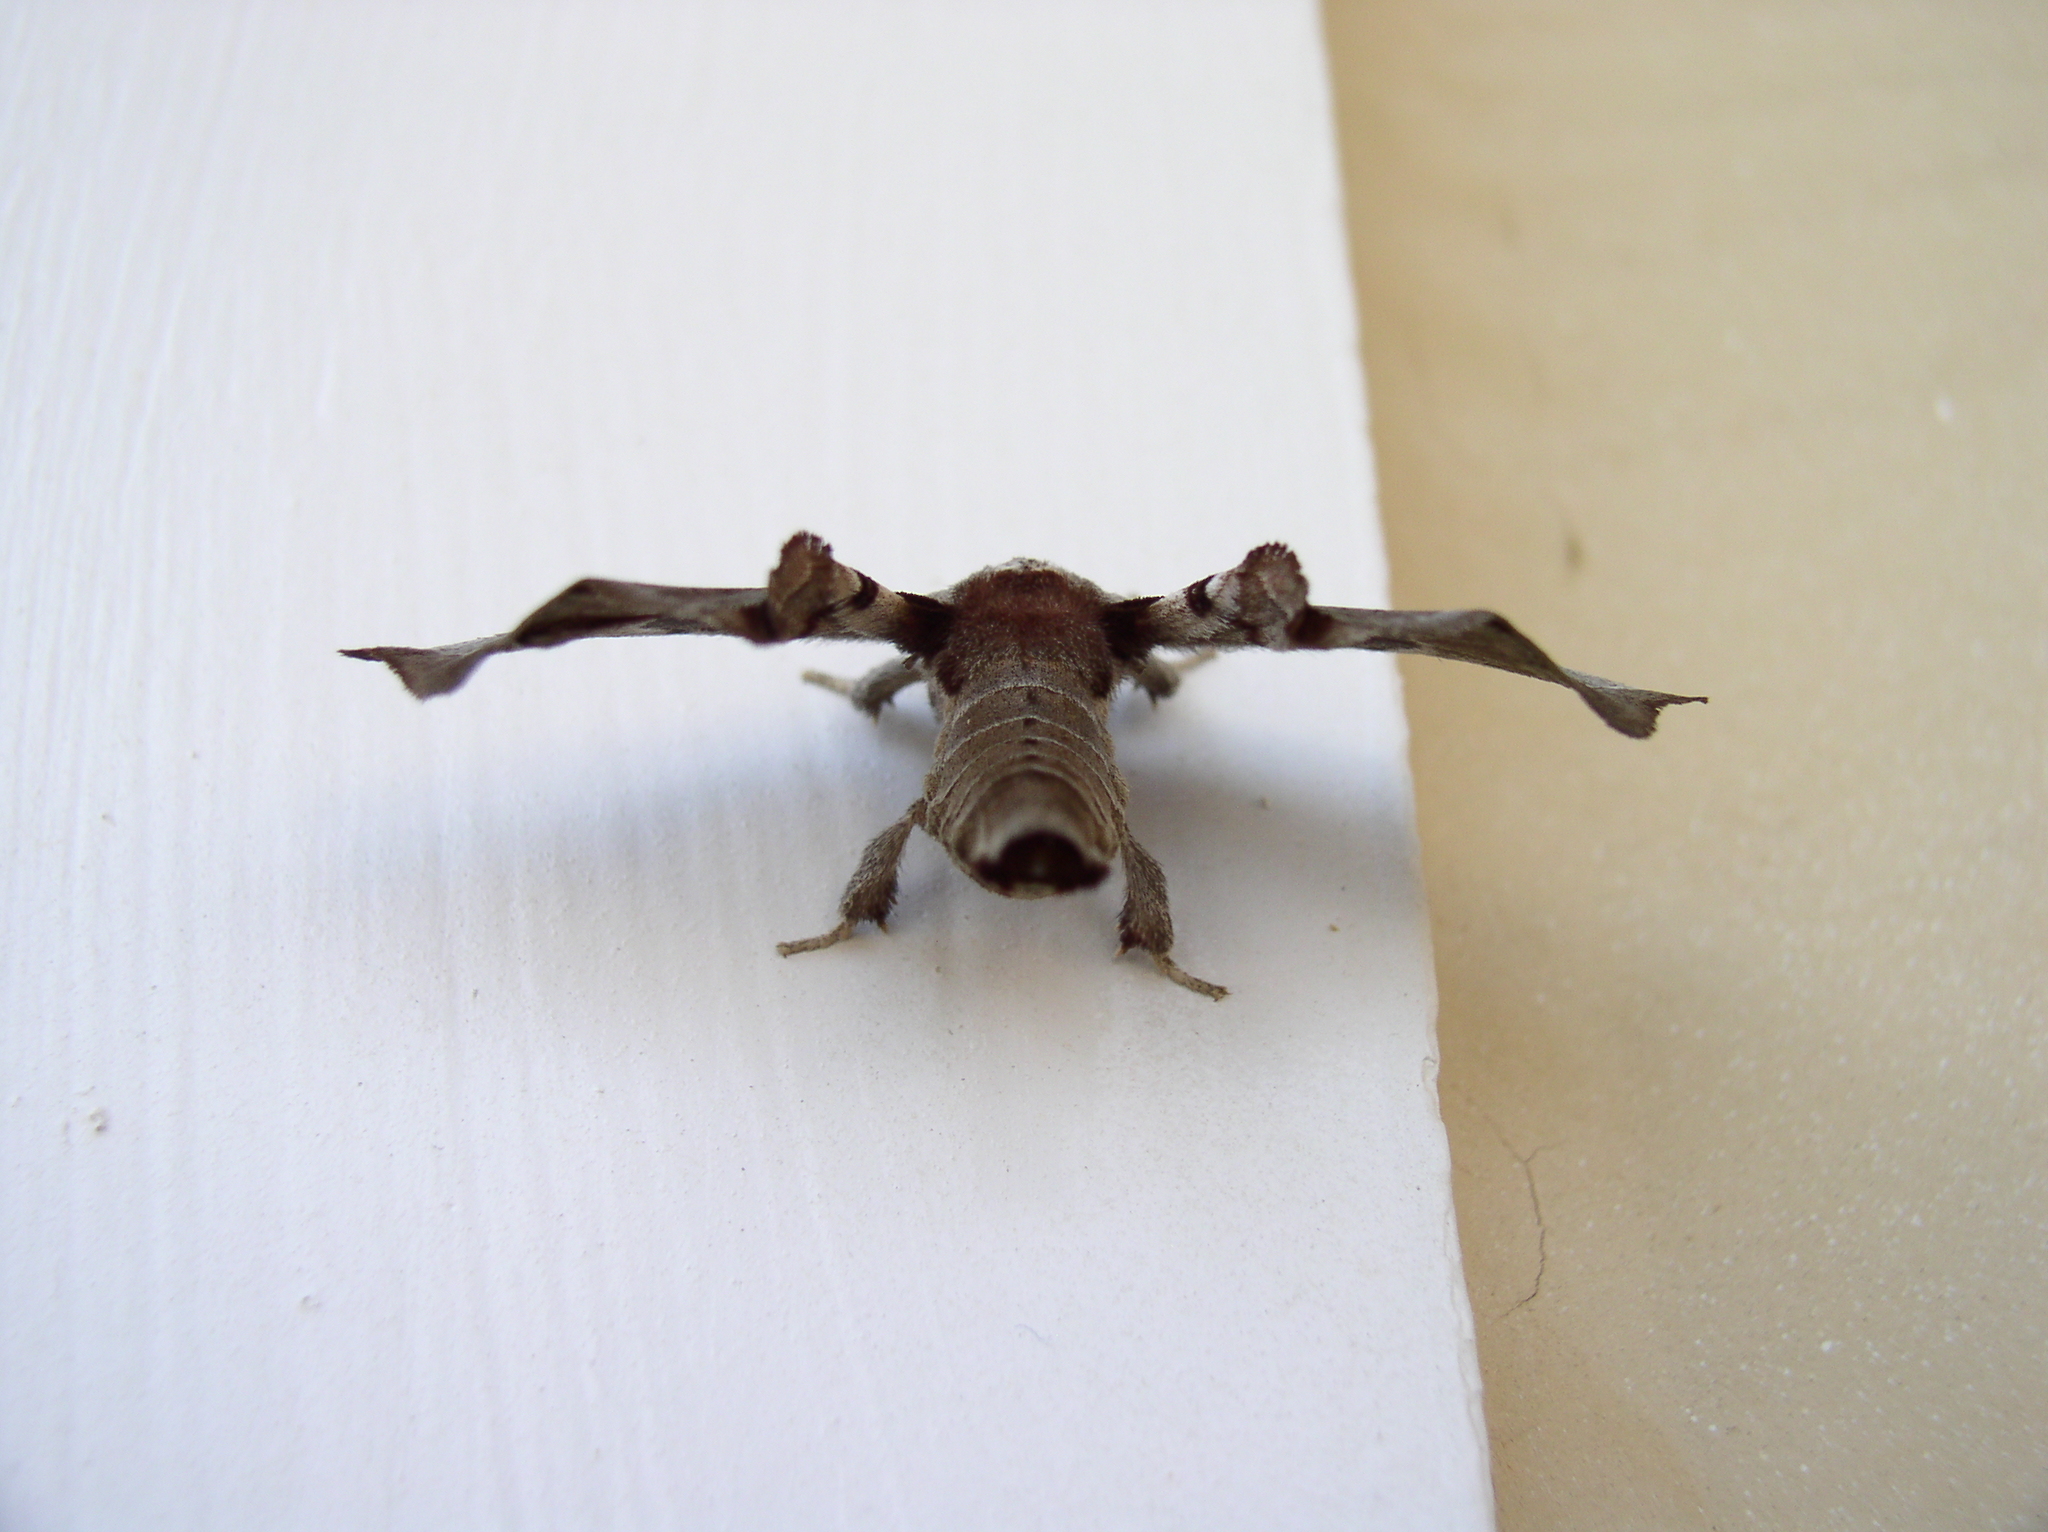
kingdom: Animalia
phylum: Arthropoda
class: Insecta
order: Lepidoptera
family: Apatelodidae
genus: Hygrochroa
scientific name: Hygrochroa Apatelodes torrefacta
